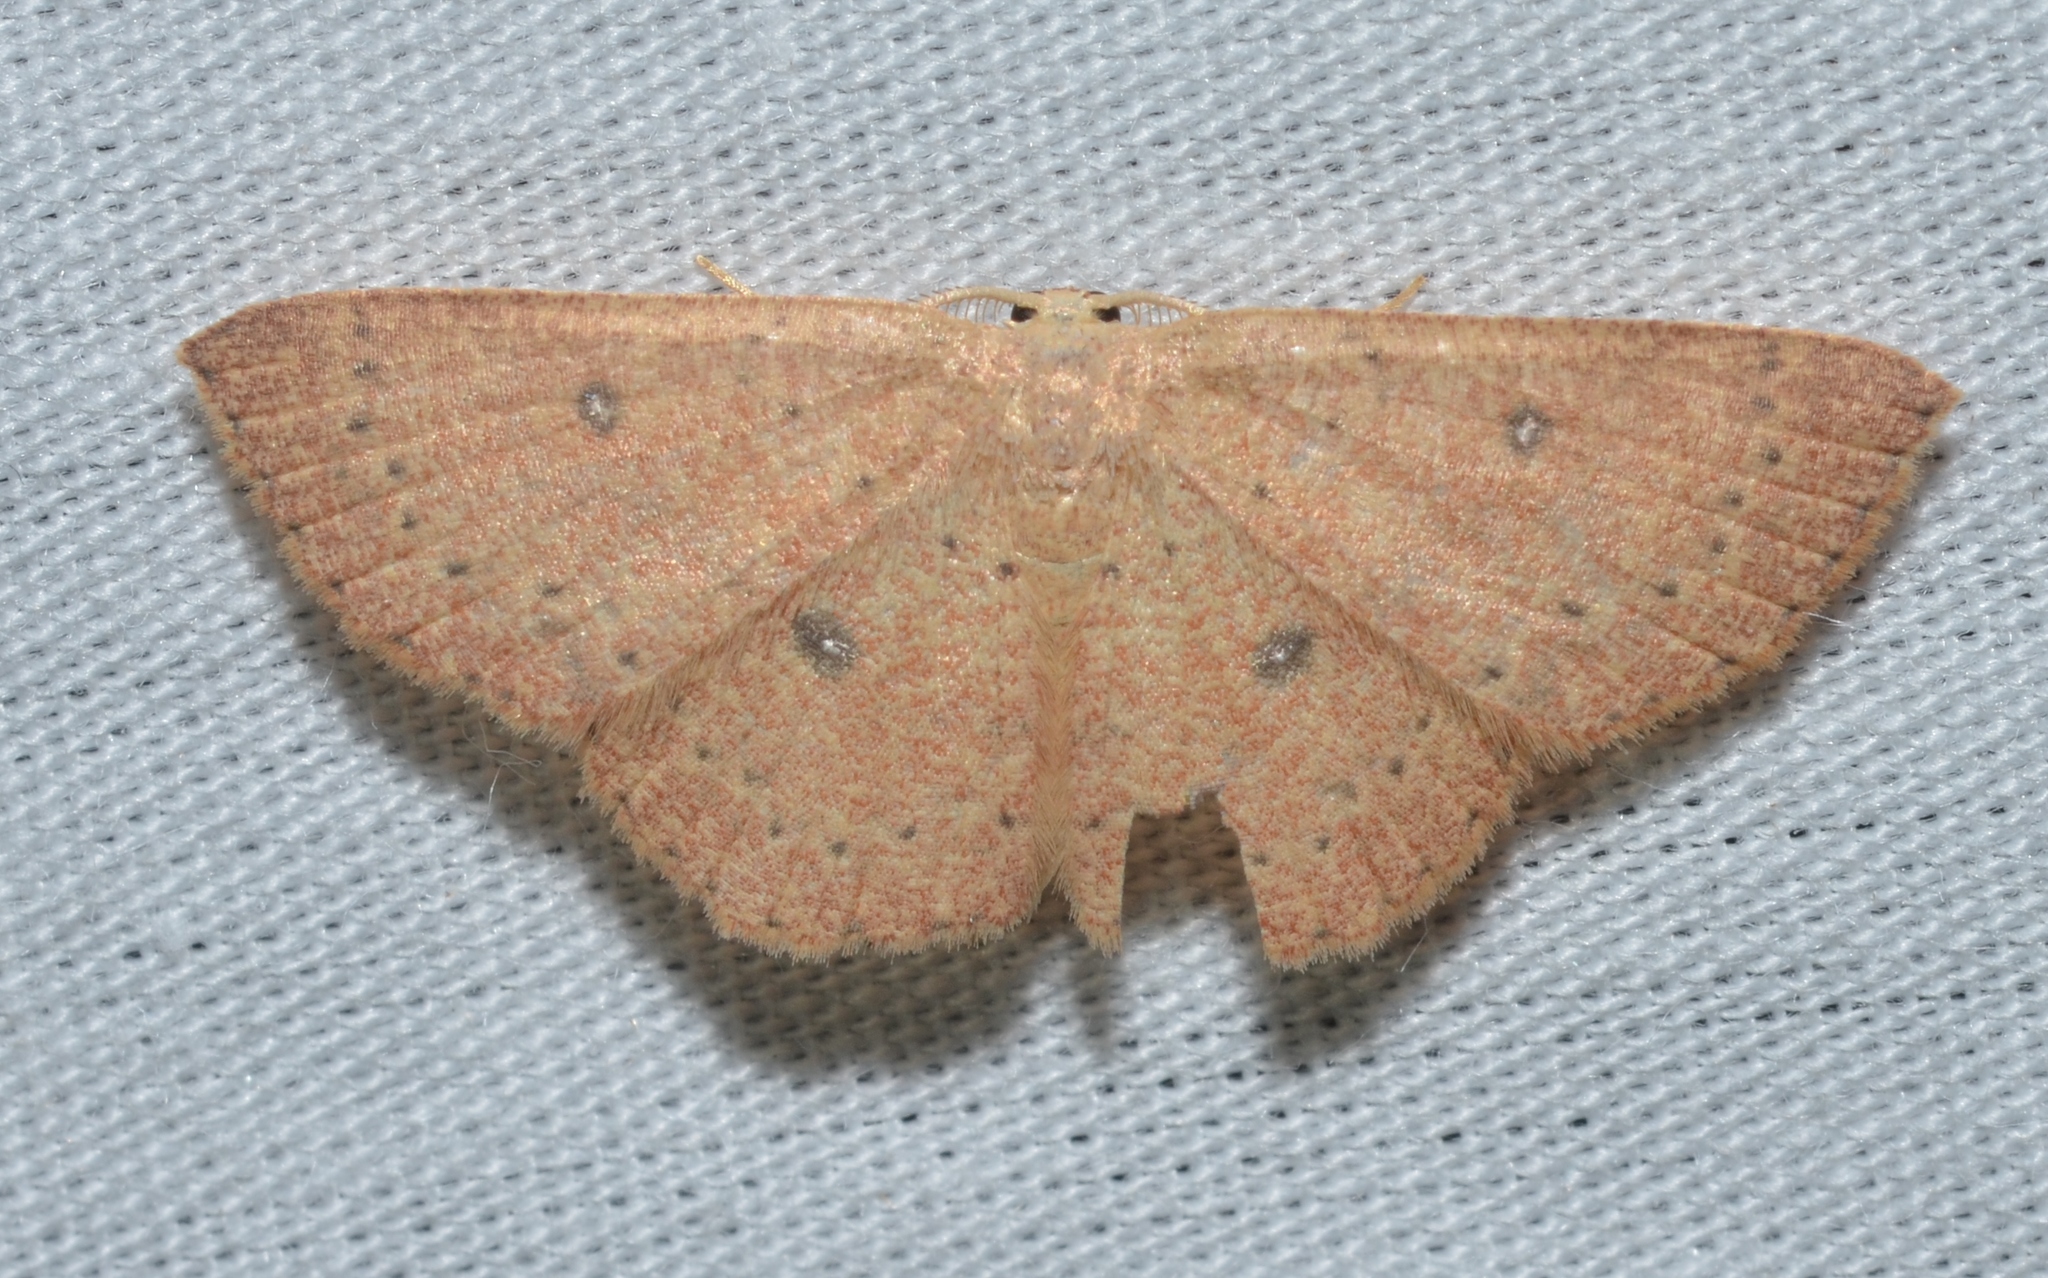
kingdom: Animalia
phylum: Arthropoda
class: Insecta
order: Lepidoptera
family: Geometridae
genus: Cyclophora
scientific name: Cyclophora packardi
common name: Packard's wave
